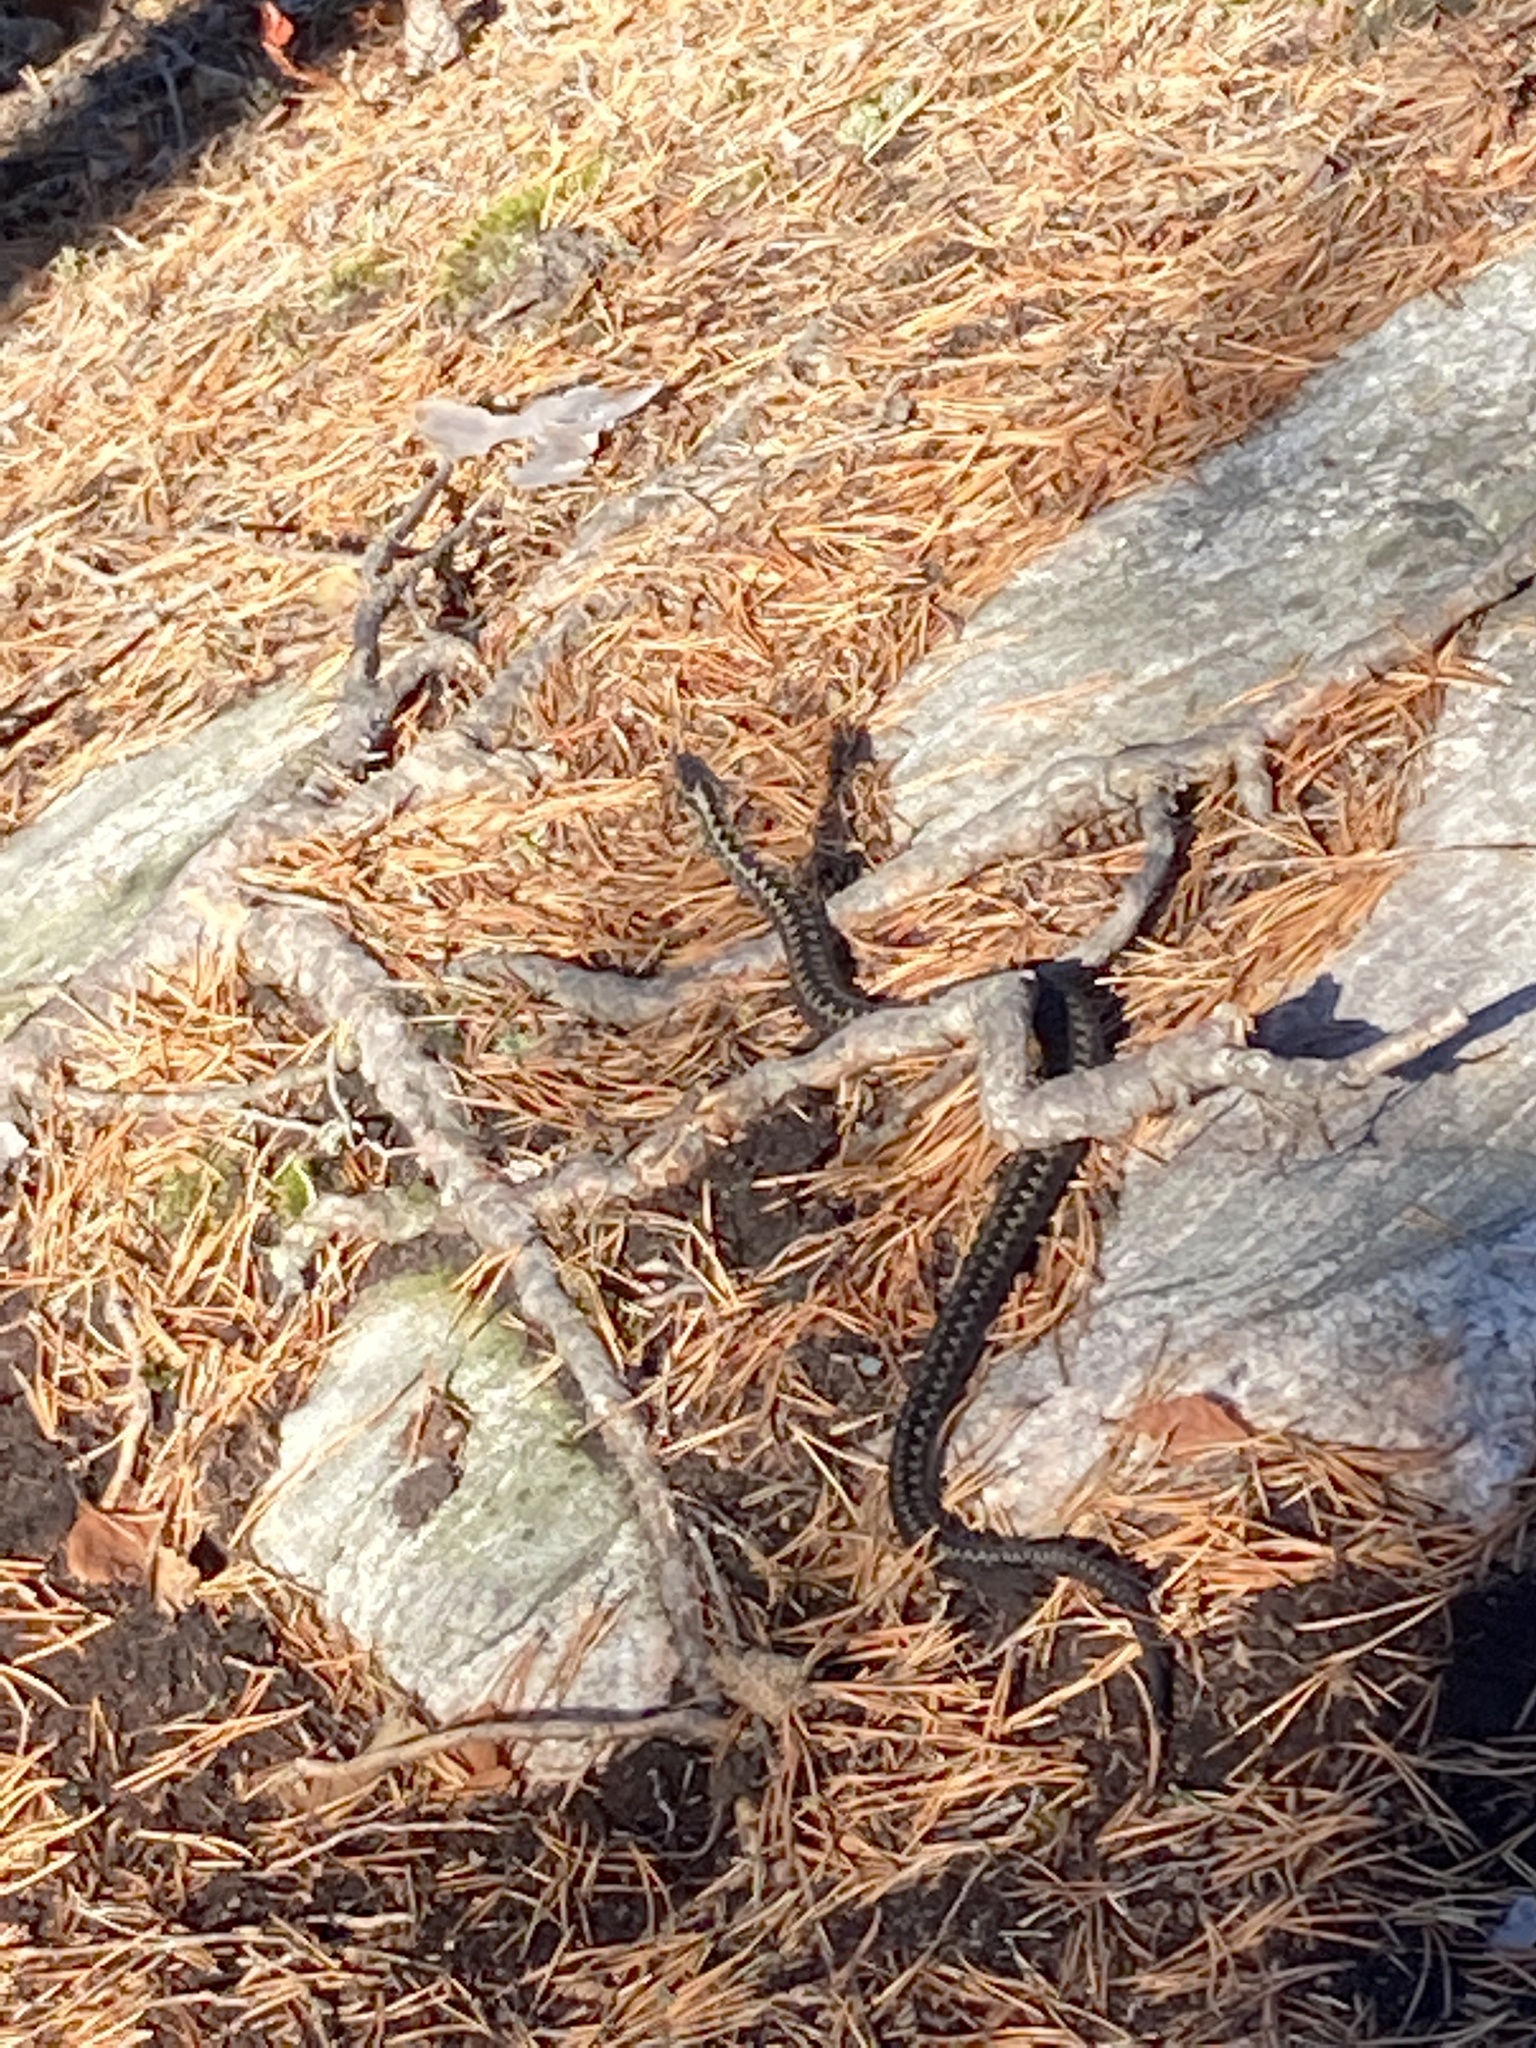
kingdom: Animalia
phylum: Chordata
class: Squamata
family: Viperidae
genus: Vipera
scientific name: Vipera berus
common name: Adder
